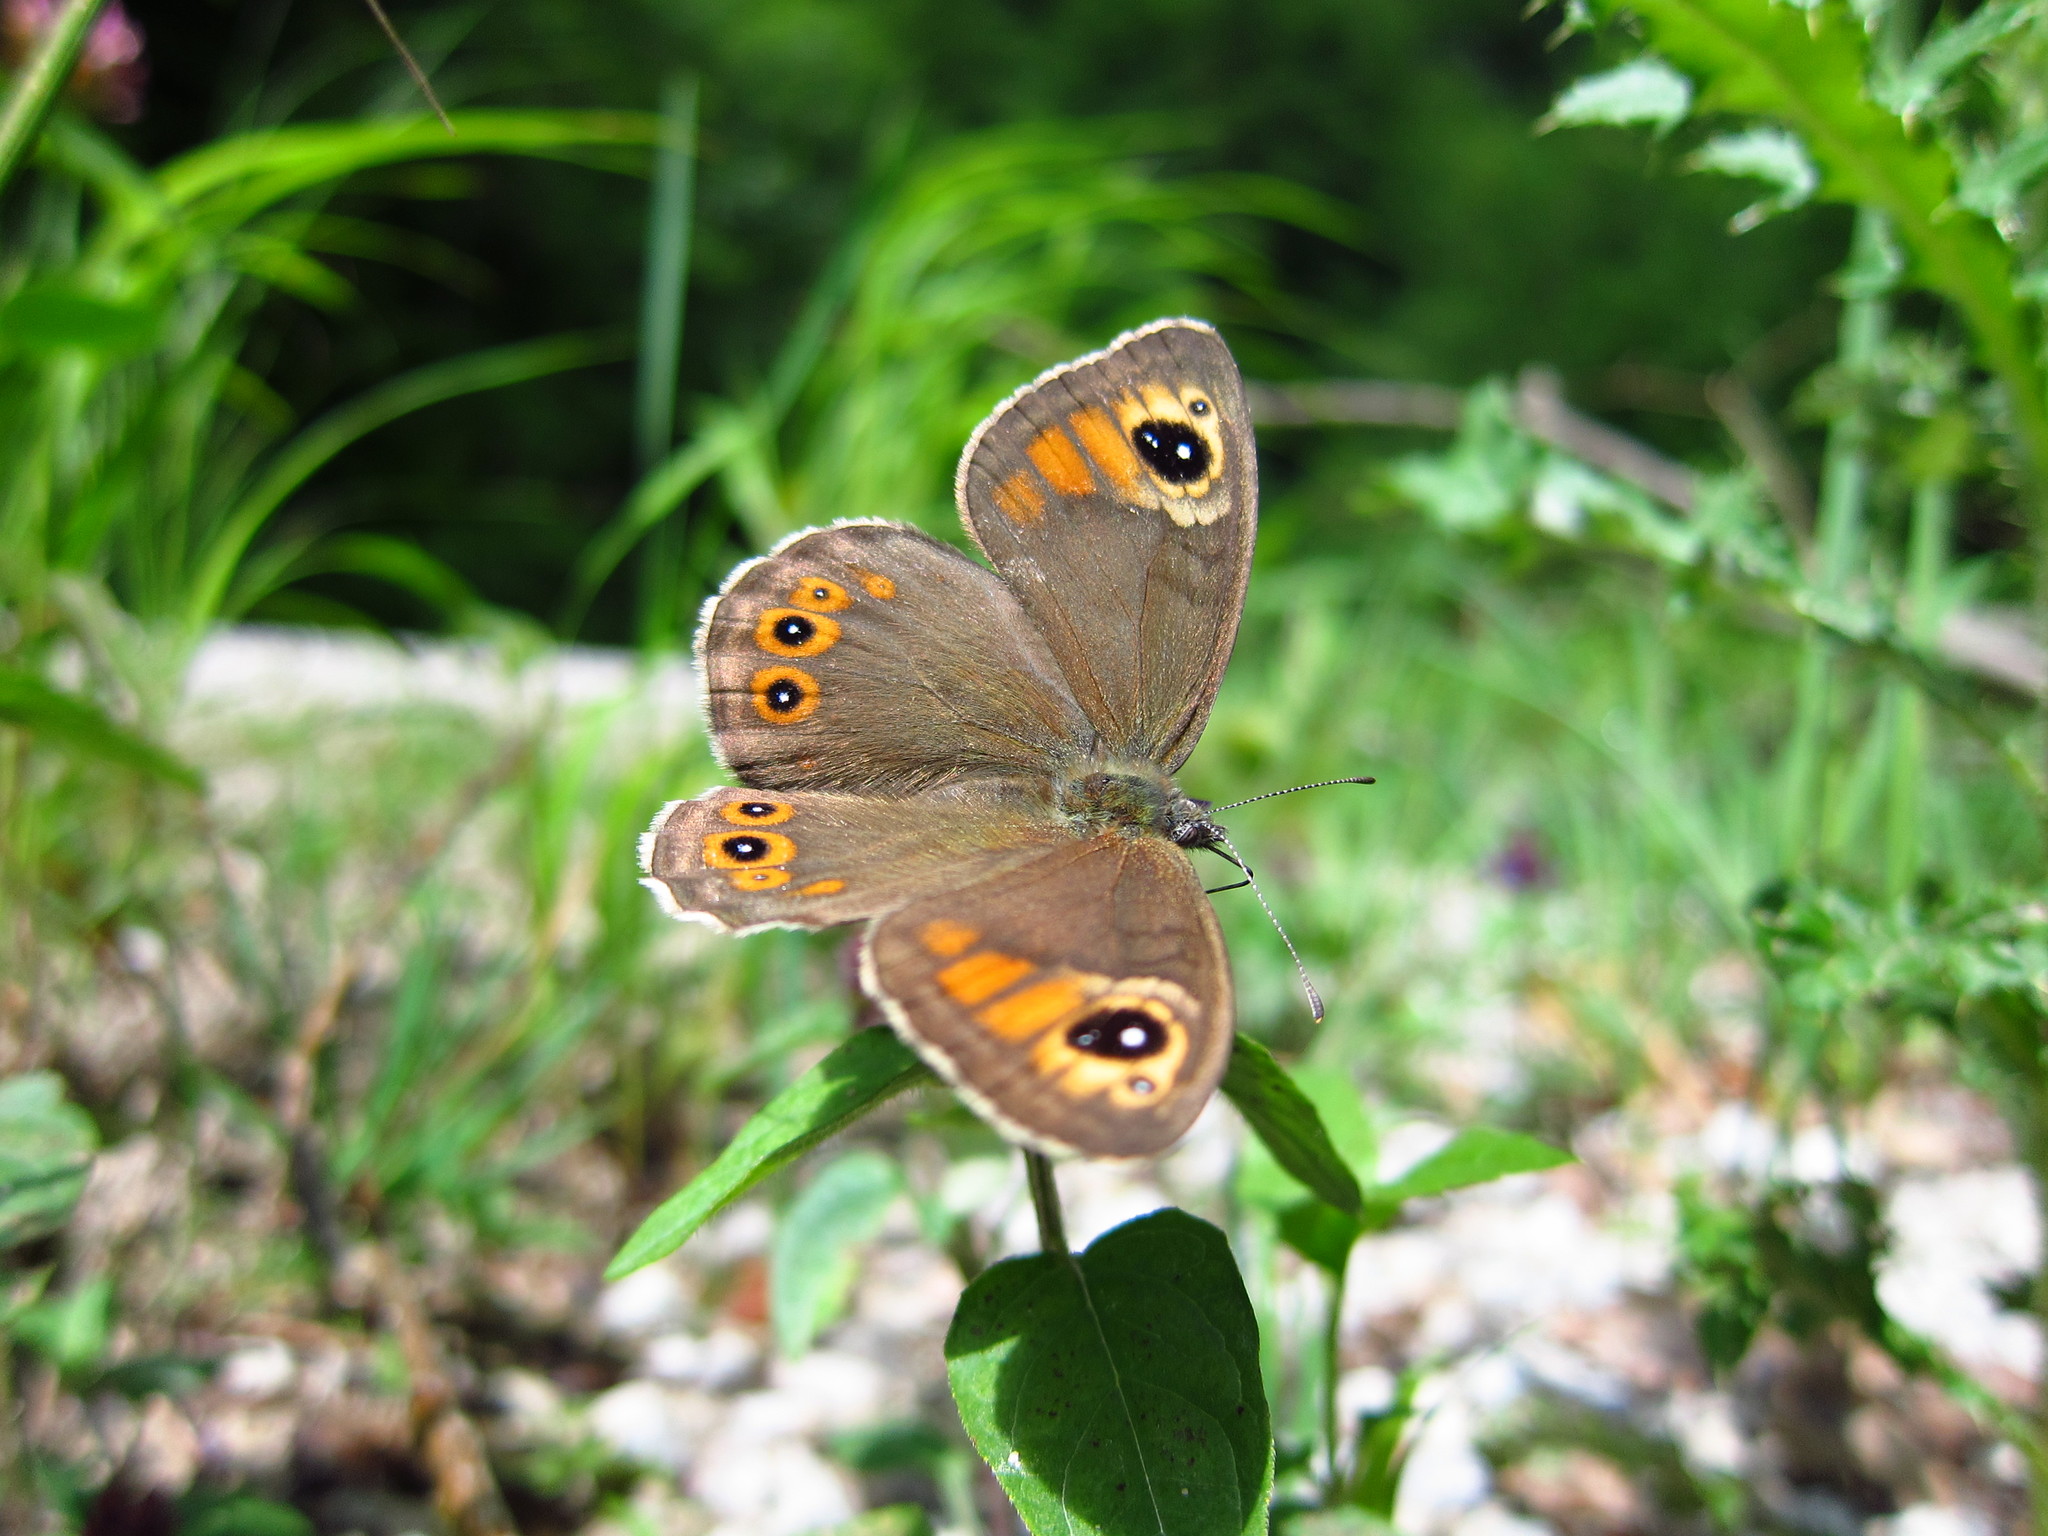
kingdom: Animalia
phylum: Arthropoda
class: Insecta
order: Lepidoptera
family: Nymphalidae
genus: Pararge
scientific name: Pararge Lasiommata maera
